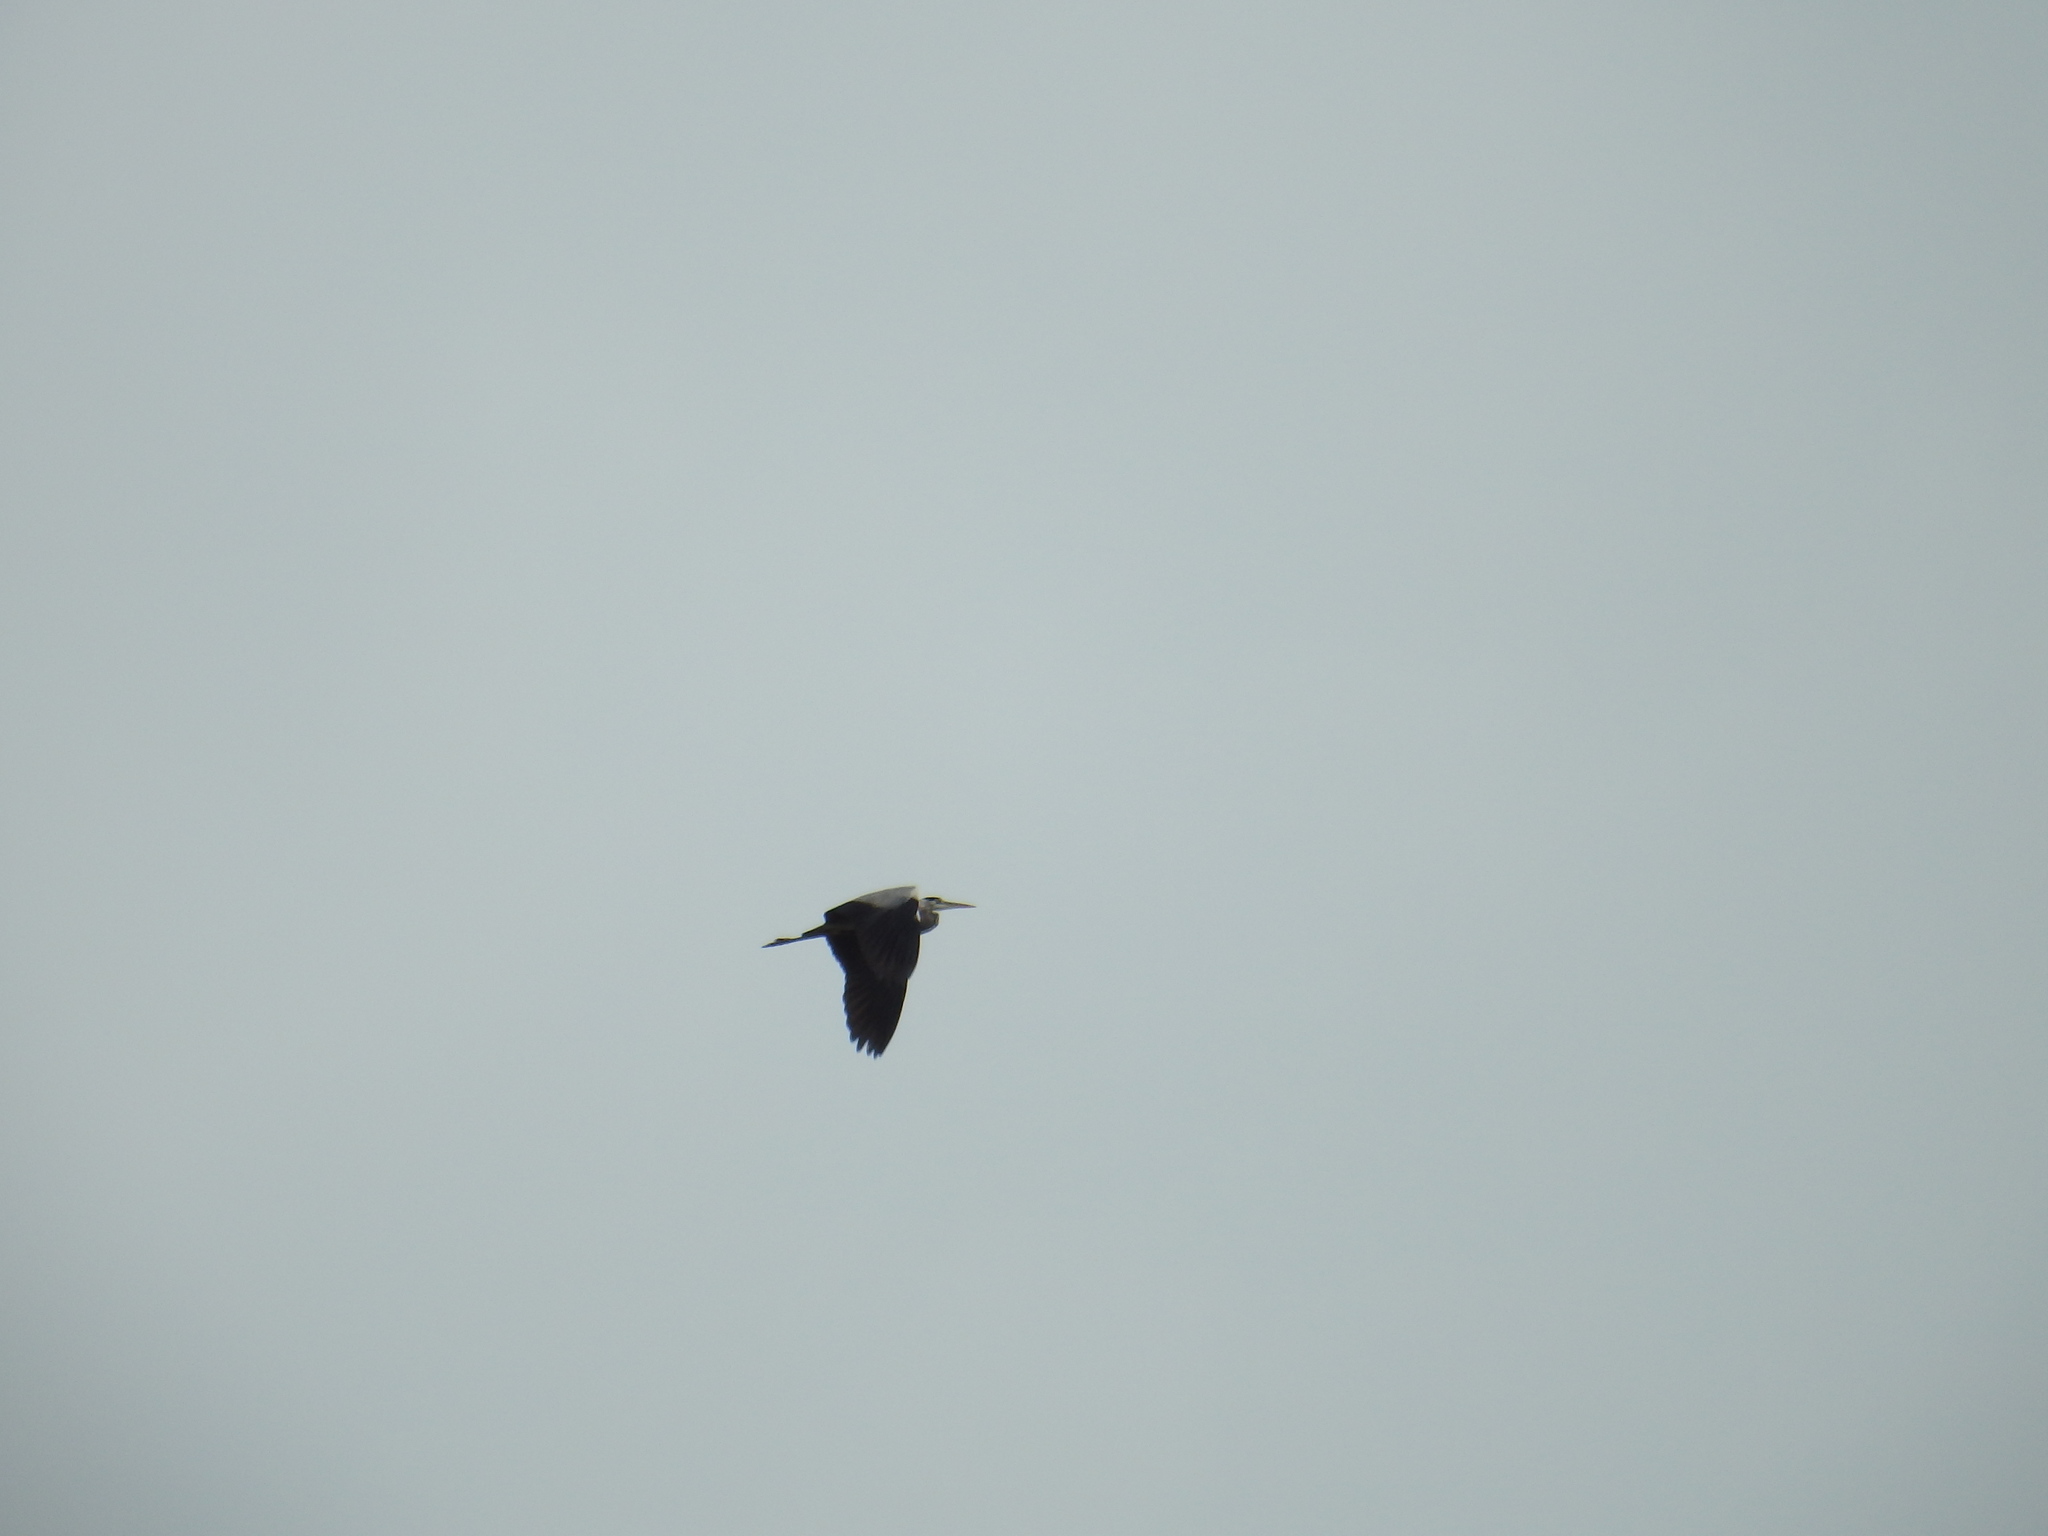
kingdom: Animalia
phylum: Chordata
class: Aves
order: Pelecaniformes
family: Ardeidae
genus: Ardea
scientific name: Ardea cinerea
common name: Grey heron
